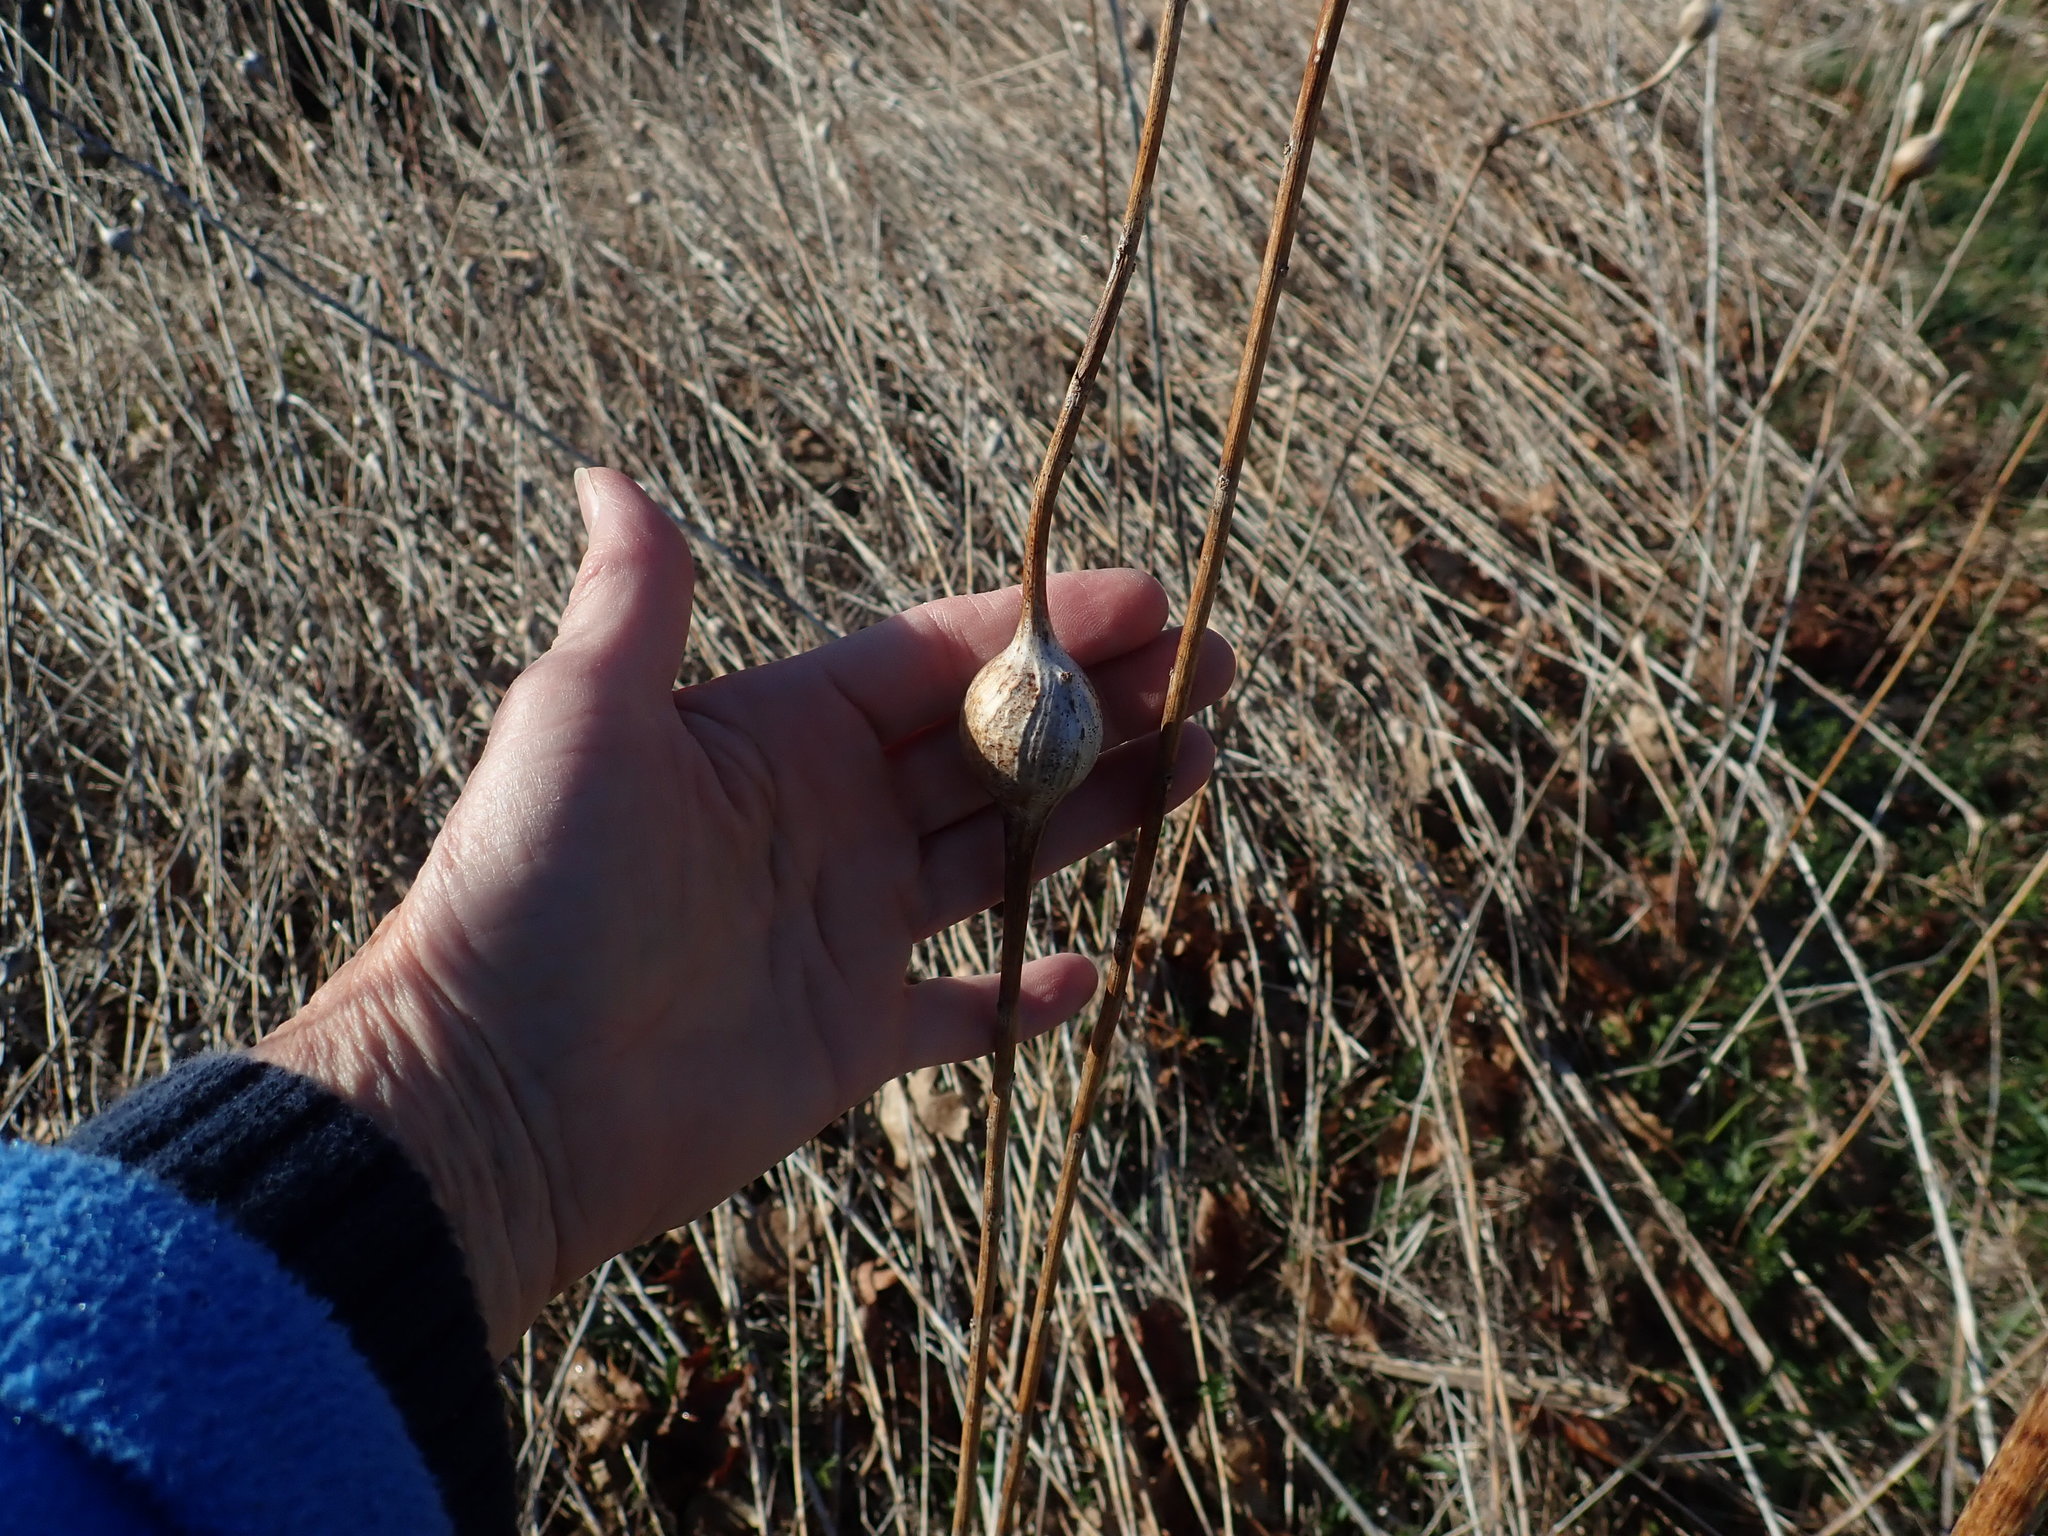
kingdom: Animalia
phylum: Arthropoda
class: Insecta
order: Diptera
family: Tephritidae
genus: Eurosta
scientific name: Eurosta solidaginis
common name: Goldenrod gall fly
